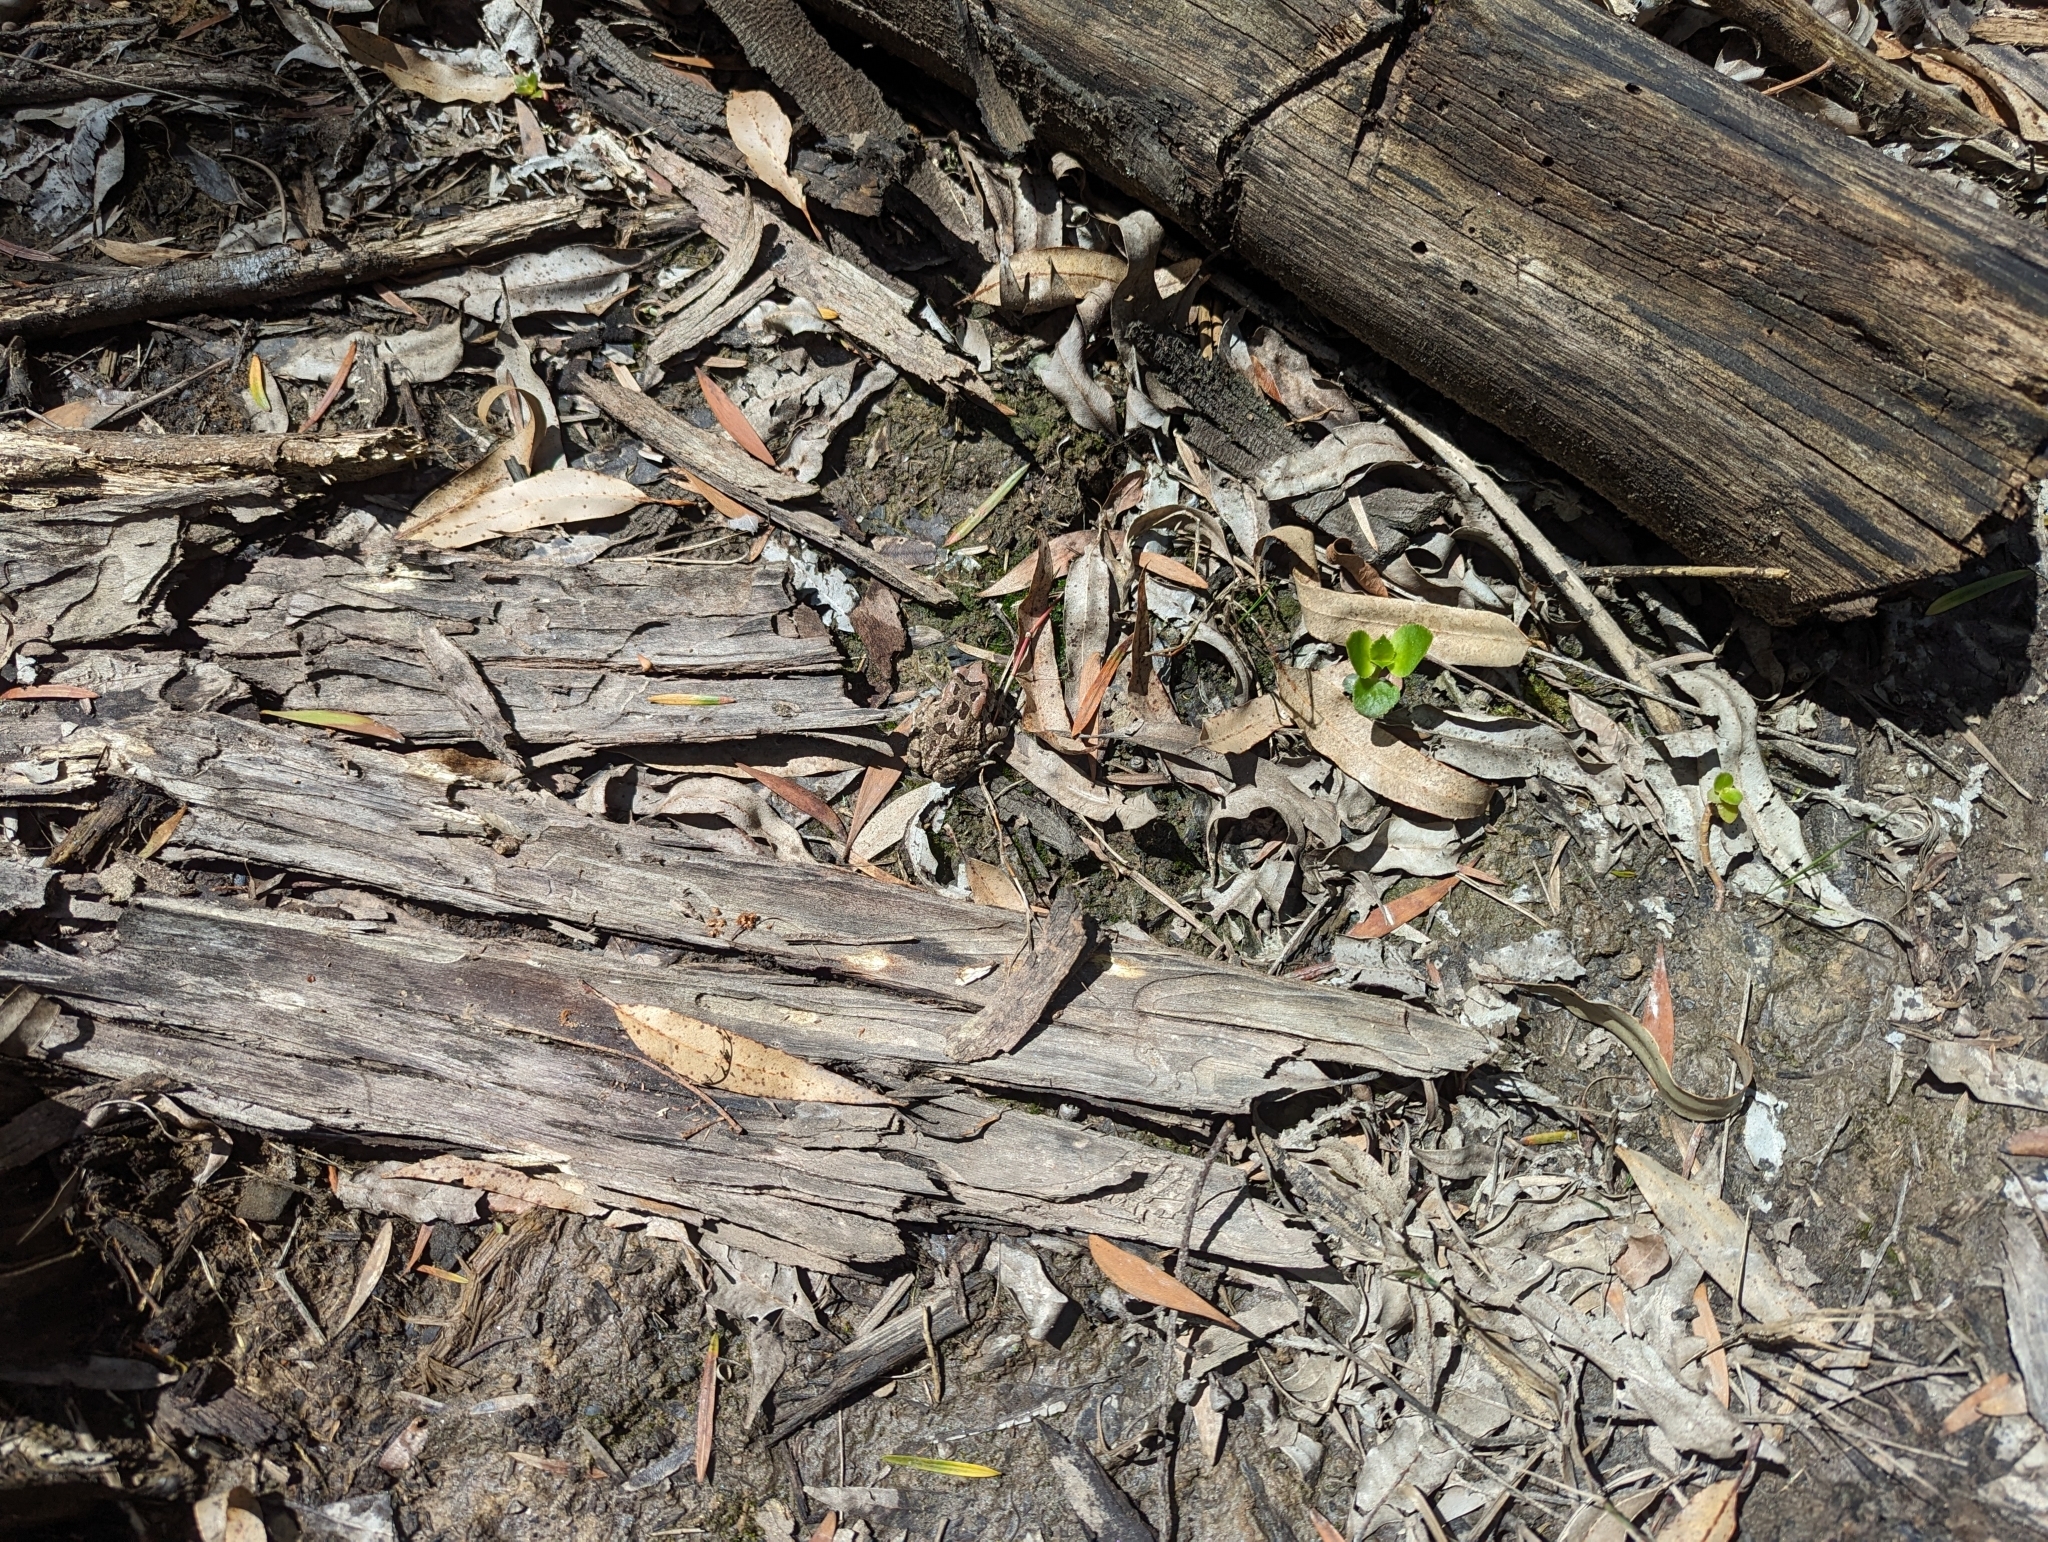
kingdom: Animalia
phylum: Chordata
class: Amphibia
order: Anura
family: Bufonidae
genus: Sclerophrys
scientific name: Sclerophrys capensis
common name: Ranger’s toad
